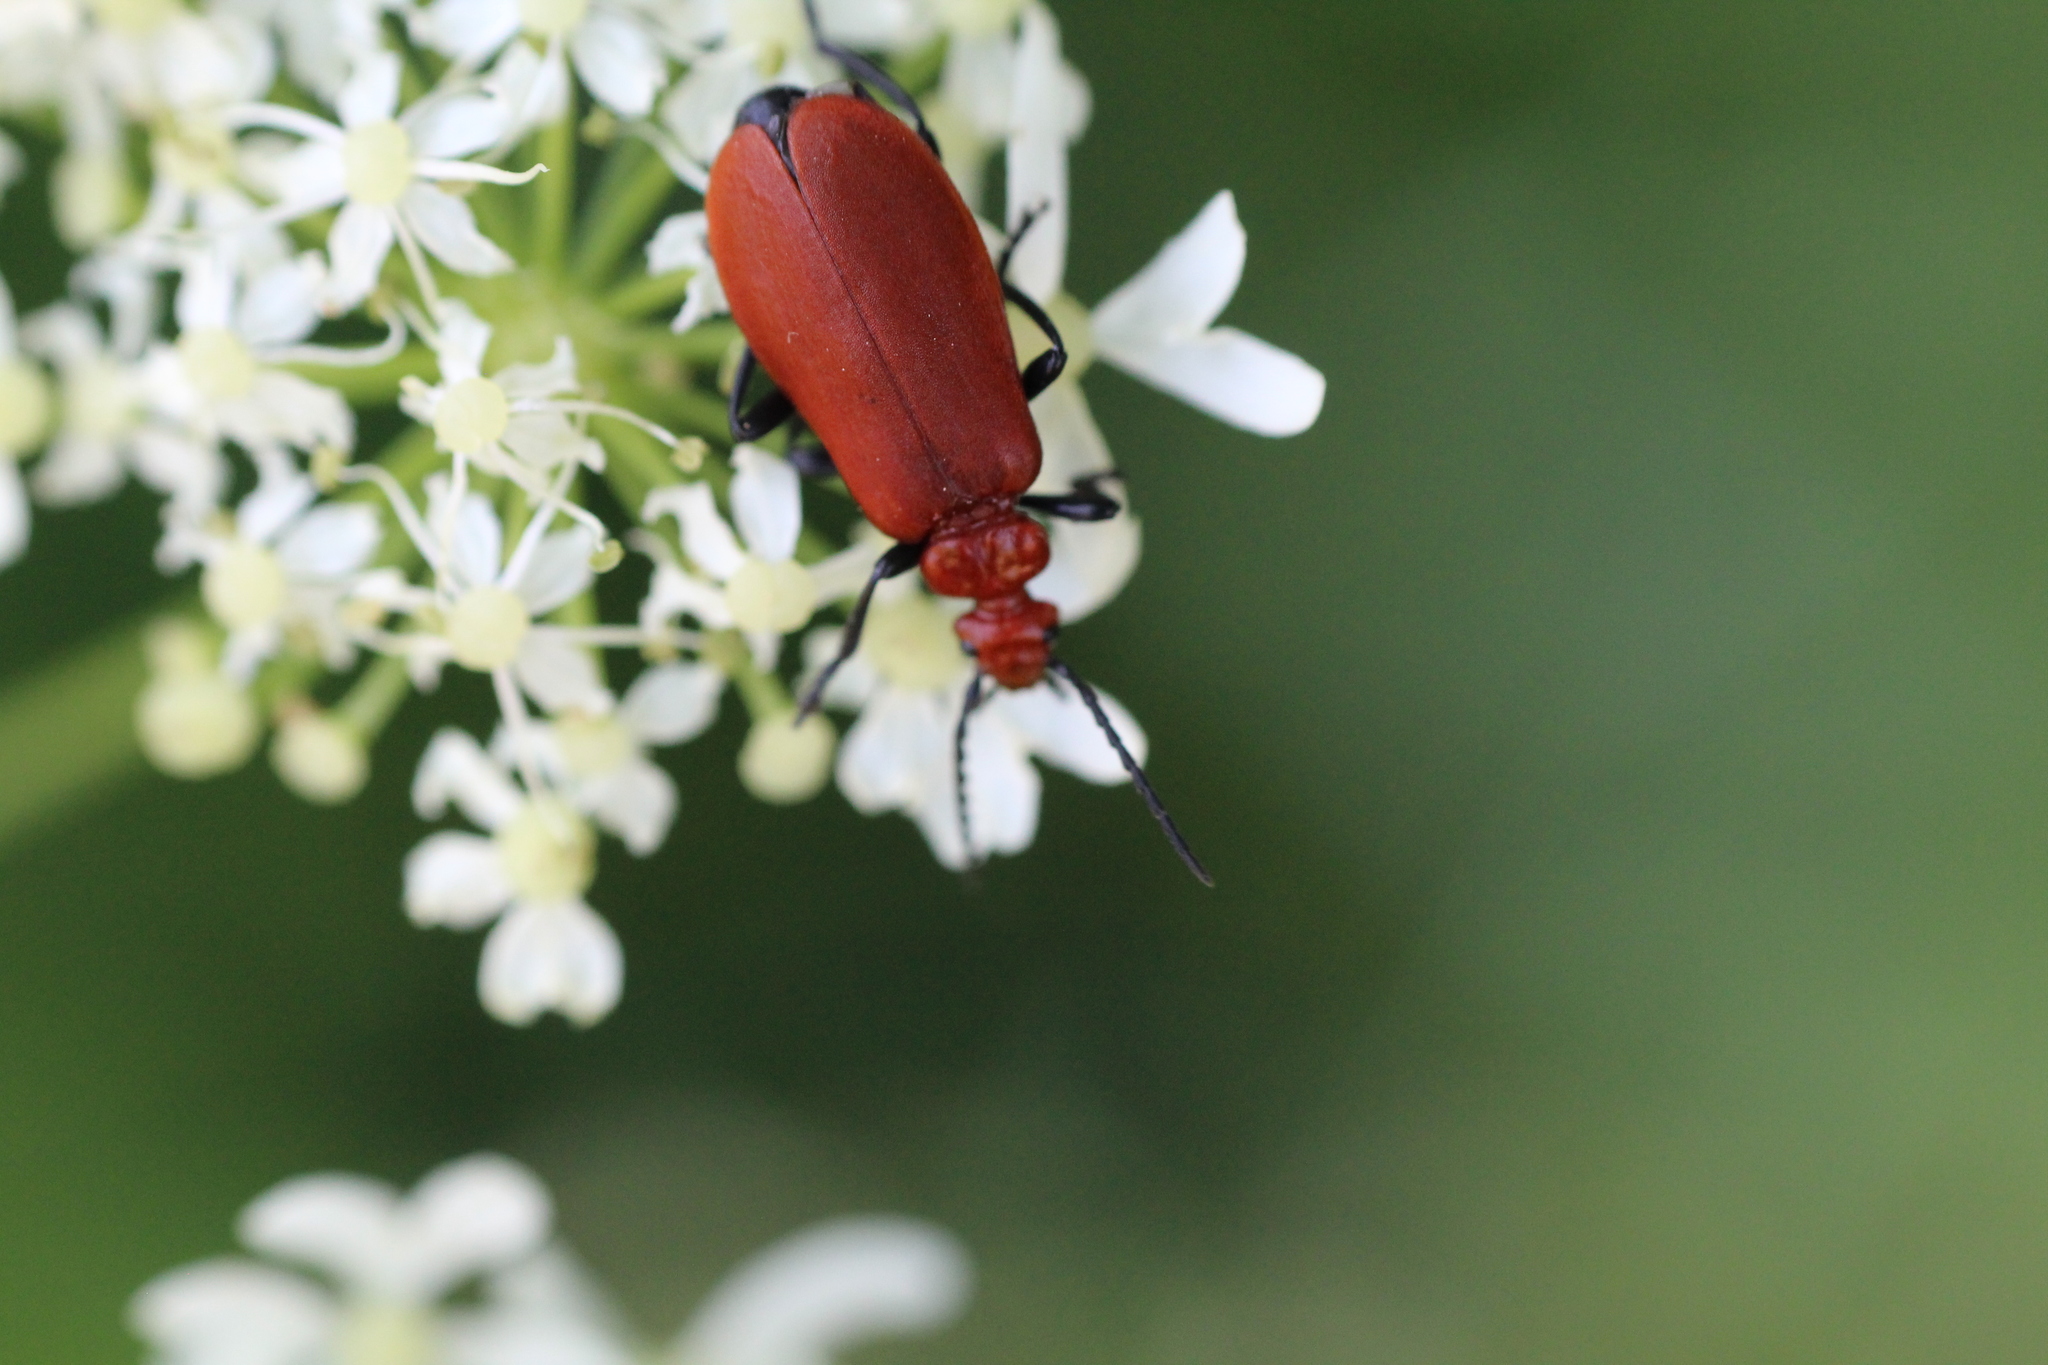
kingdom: Animalia
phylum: Arthropoda
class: Insecta
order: Coleoptera
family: Pyrochroidae
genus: Pyrochroa
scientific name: Pyrochroa serraticornis
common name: Red-headed cardinal beetle
